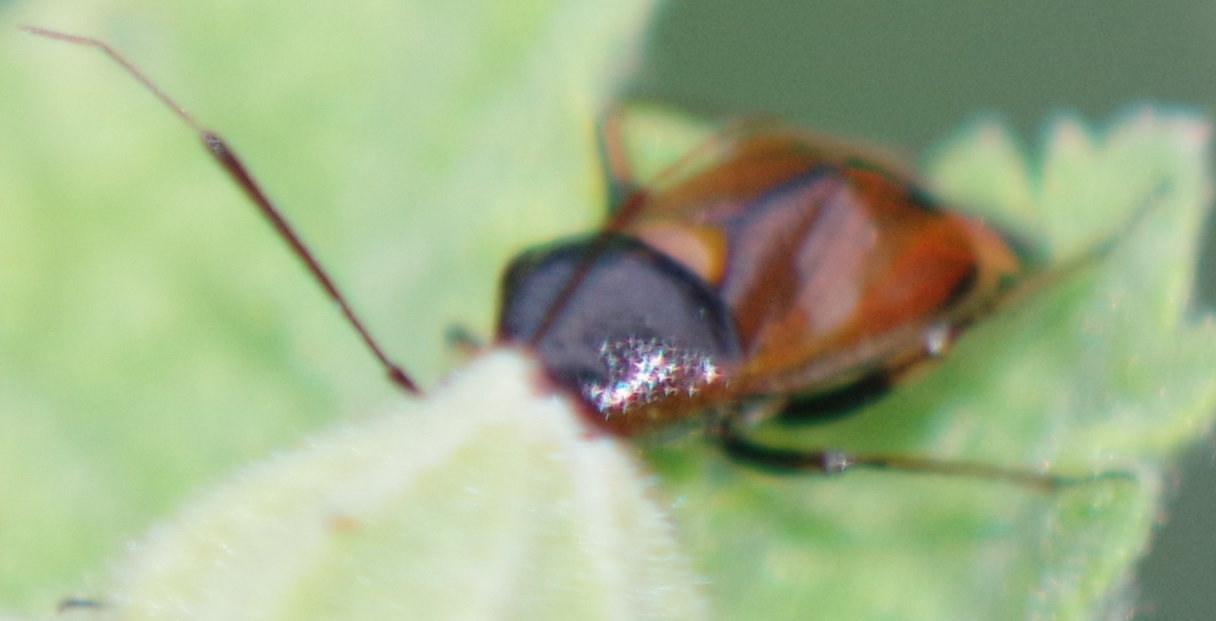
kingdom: Animalia
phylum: Arthropoda
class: Insecta
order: Hemiptera
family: Miridae
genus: Deraeocoris
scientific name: Deraeocoris ruber
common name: Plant bug
